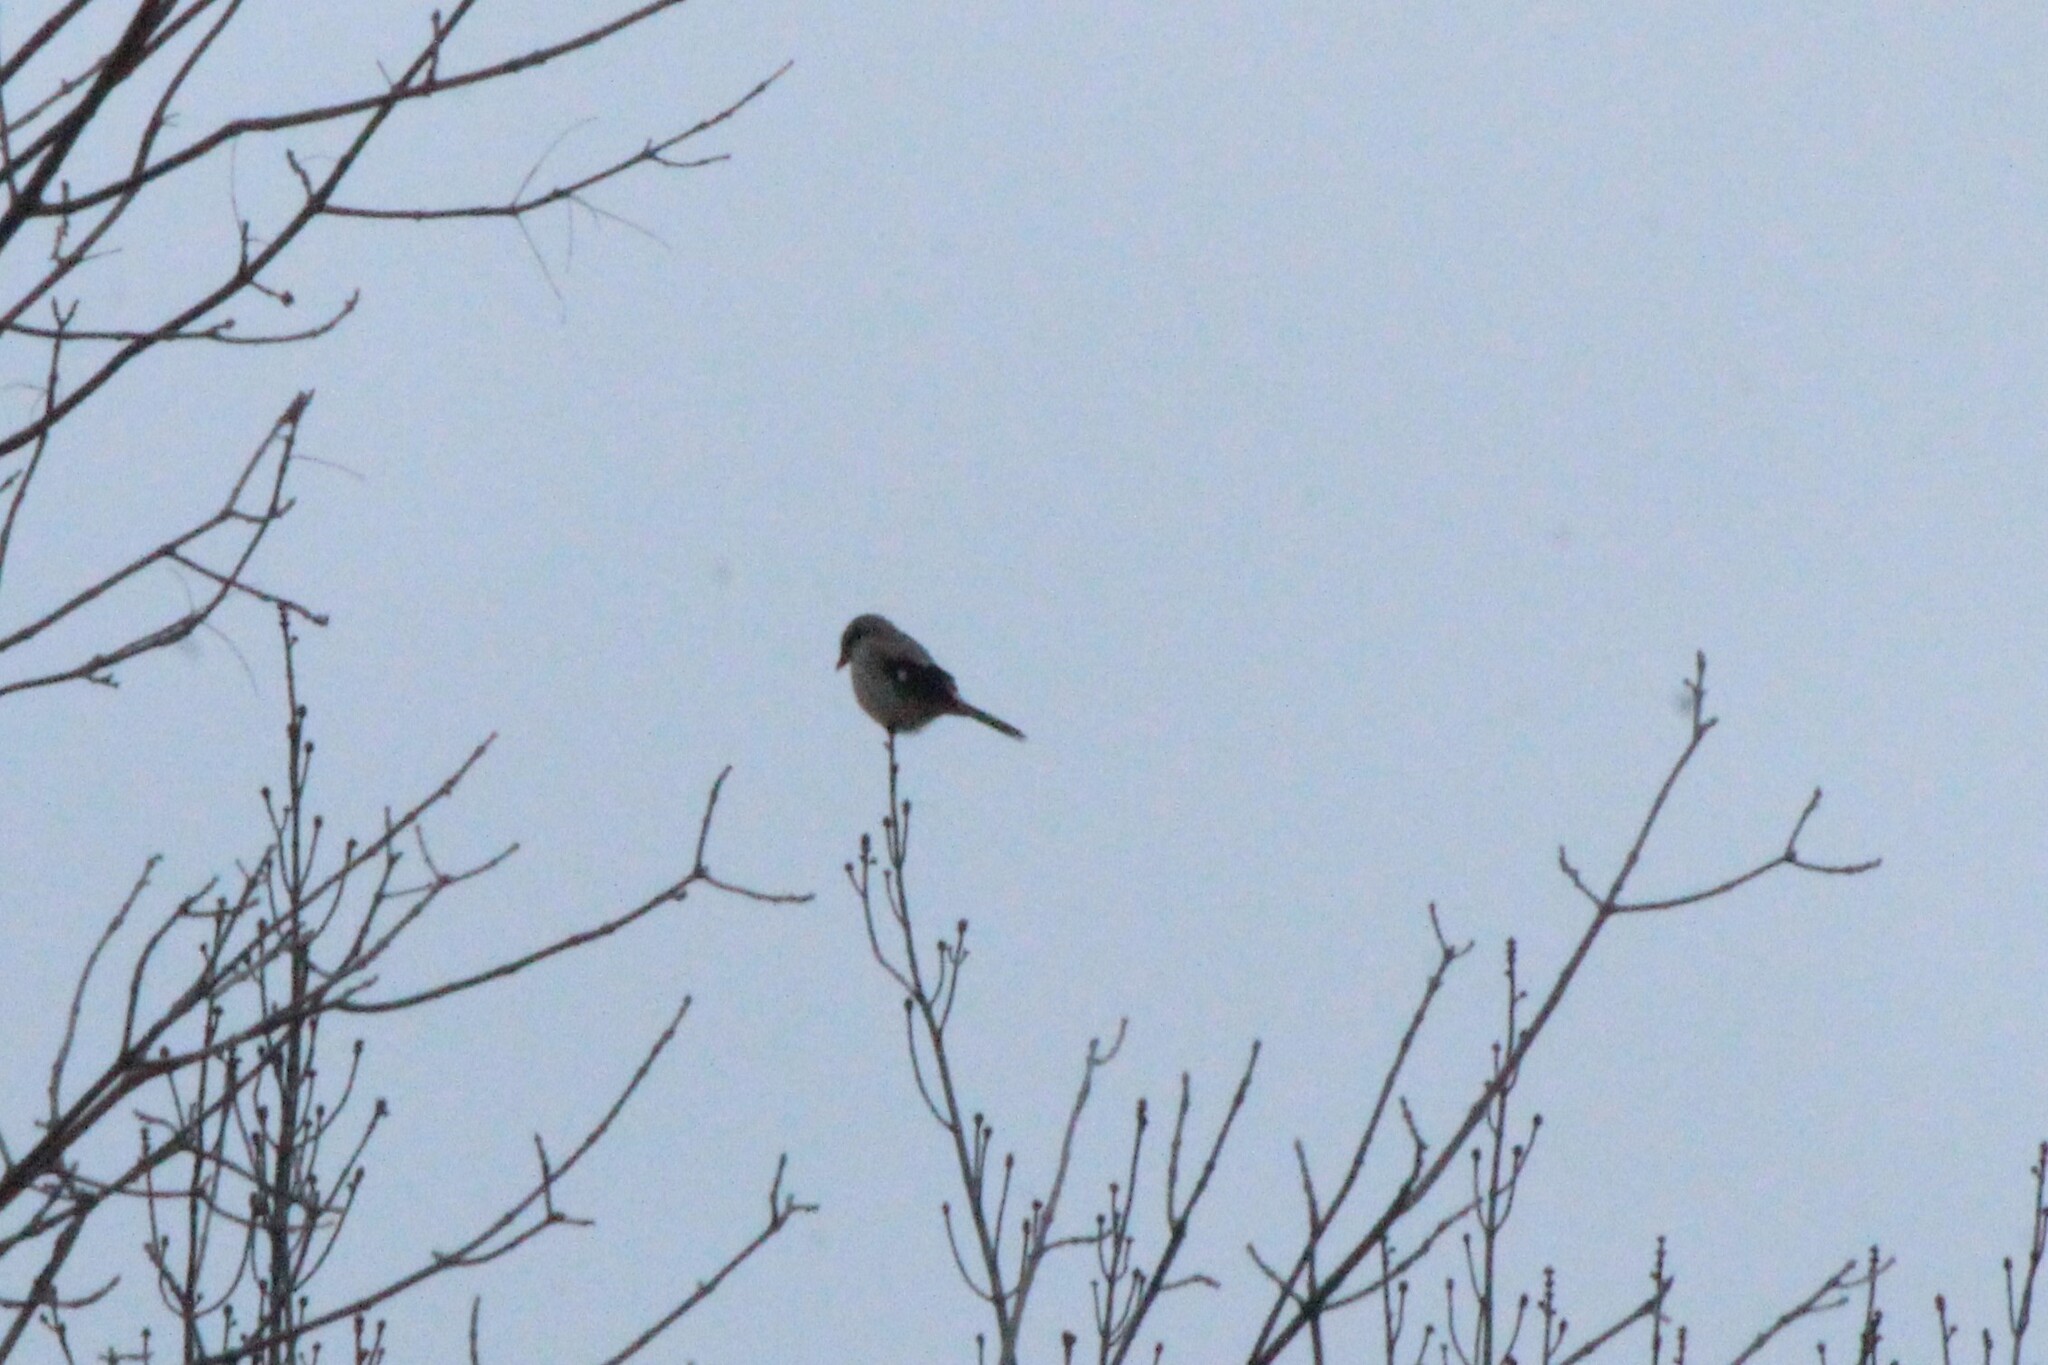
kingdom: Animalia
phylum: Chordata
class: Aves
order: Passeriformes
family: Laniidae
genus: Lanius
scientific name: Lanius borealis
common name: Northern shrike
